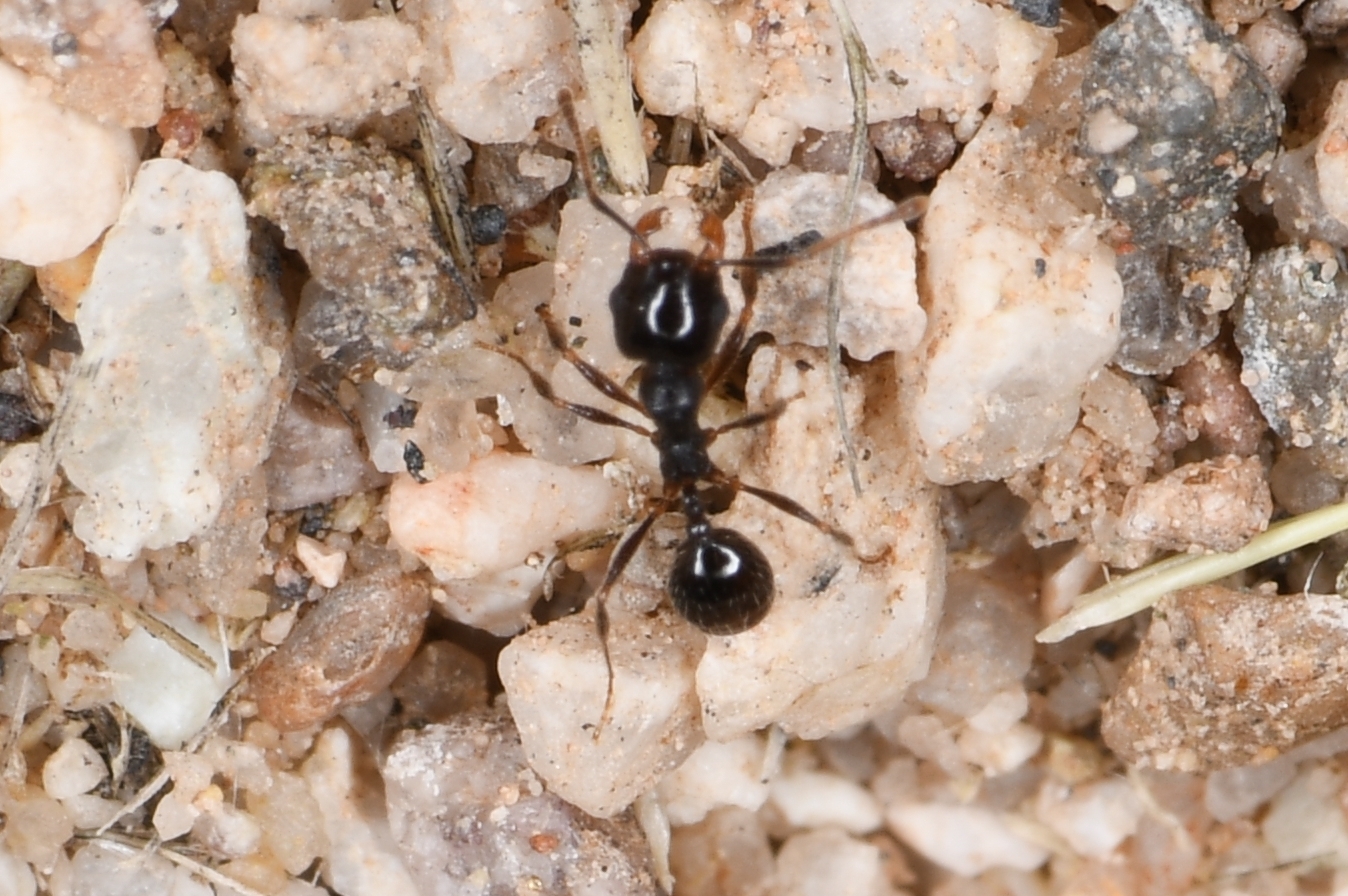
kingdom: Animalia
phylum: Arthropoda
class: Insecta
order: Hymenoptera
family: Formicidae
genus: Pheidole
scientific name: Pheidole xerophila
